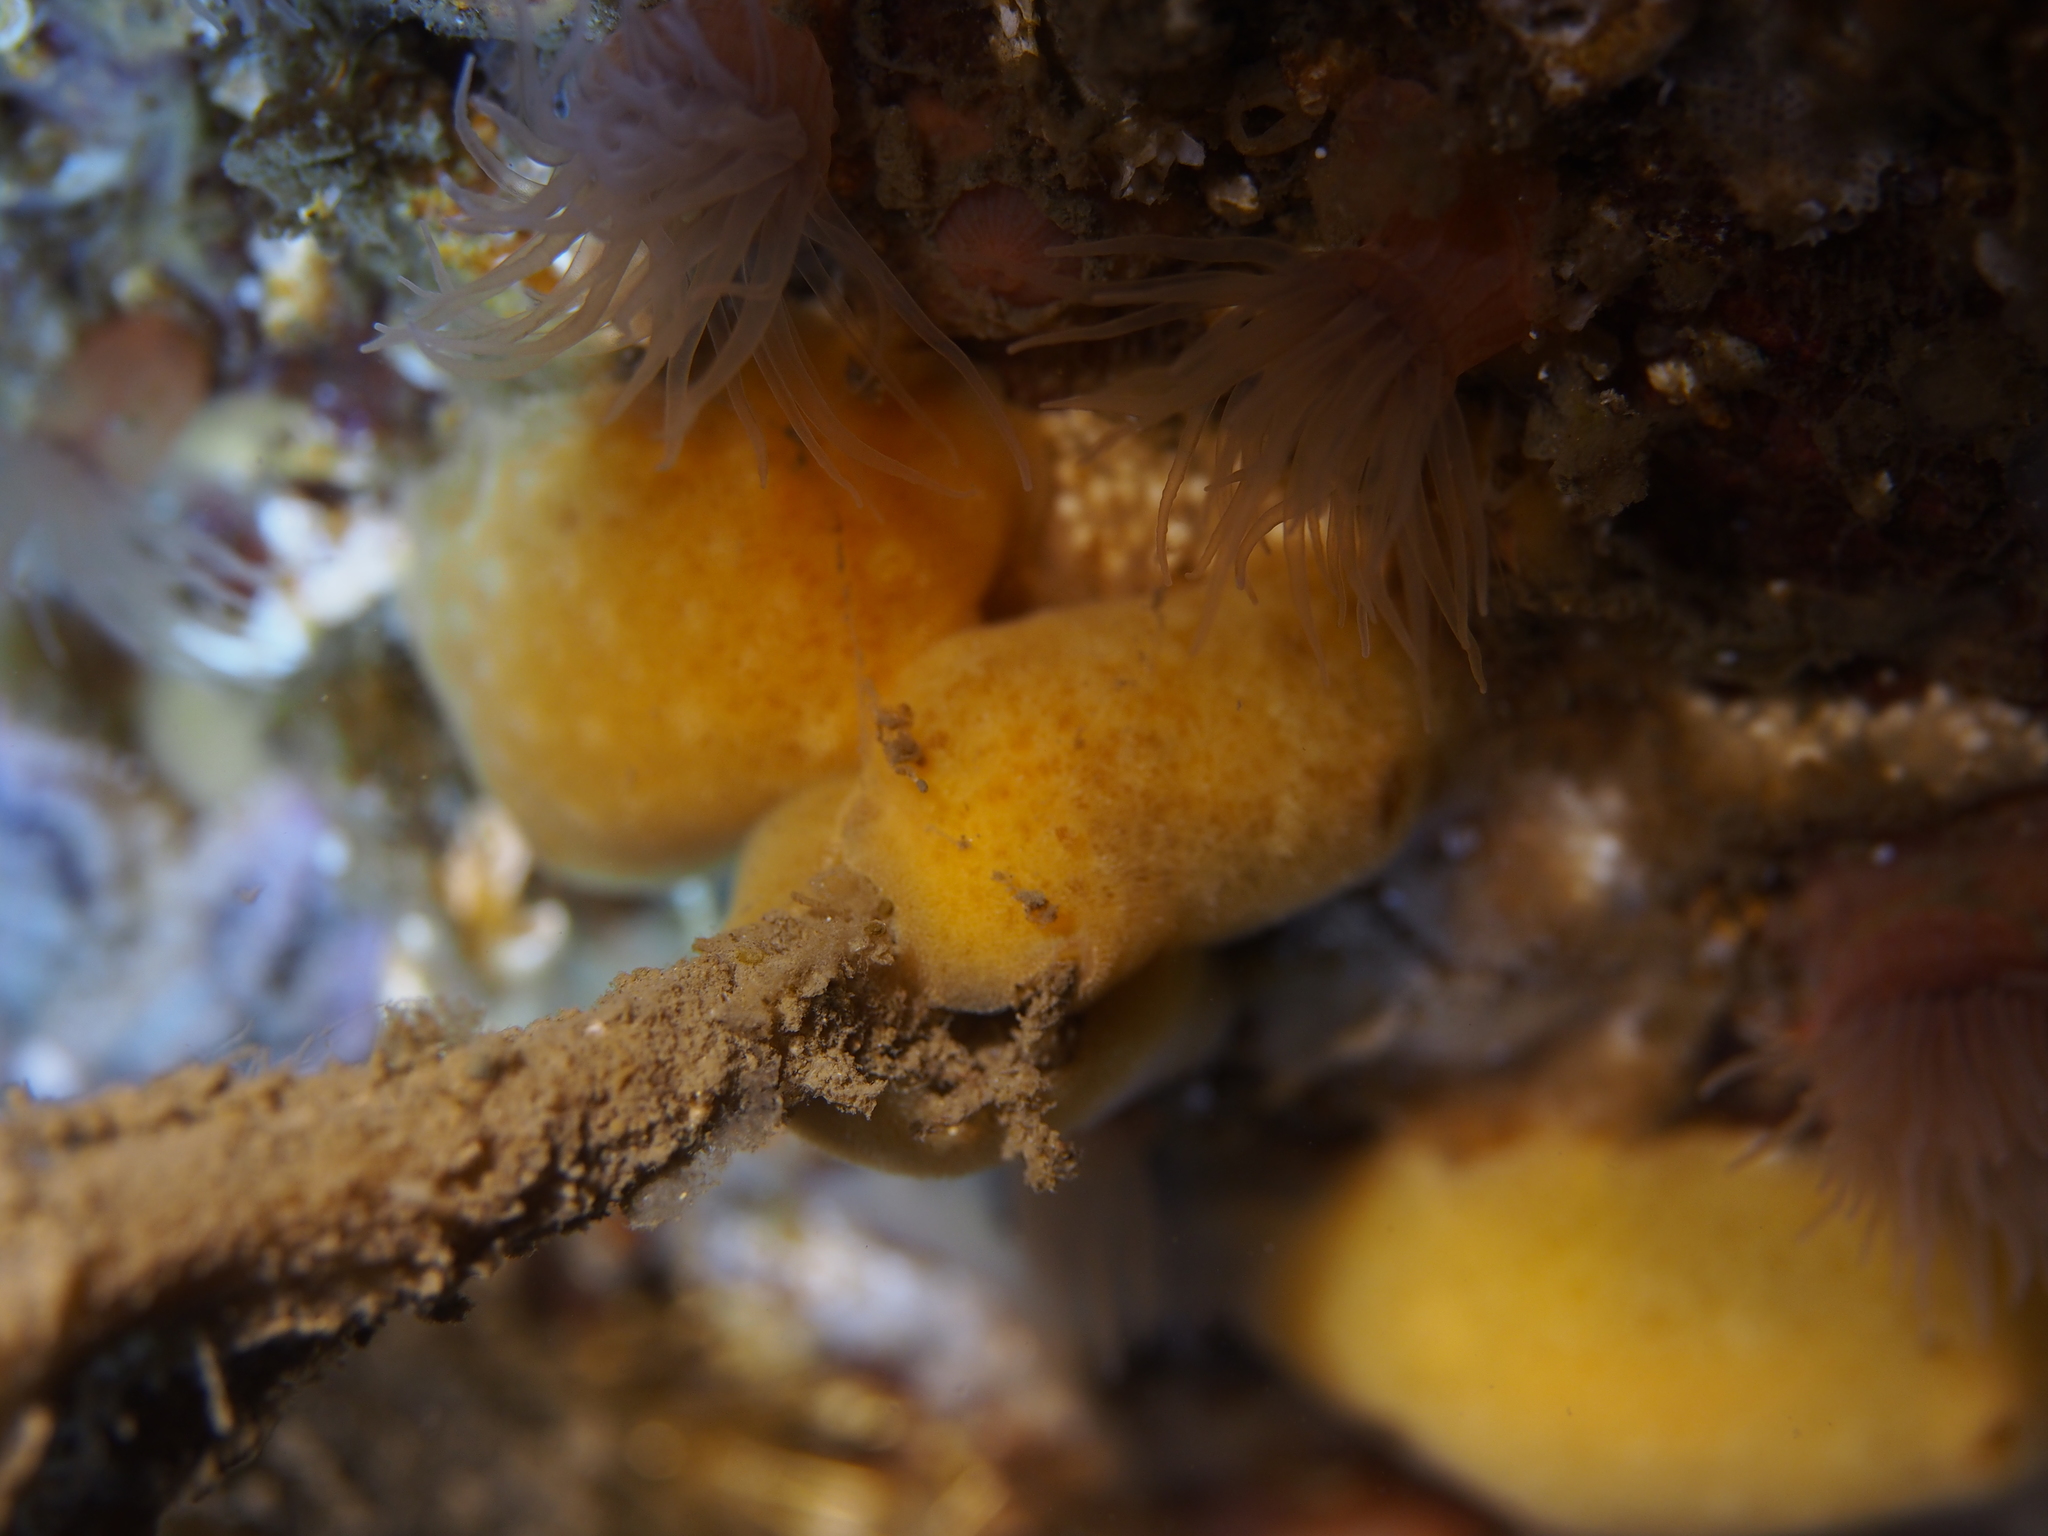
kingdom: Animalia
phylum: Mollusca
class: Gastropoda
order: Nudibranchia
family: Discodorididae
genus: Jorunna
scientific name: Jorunna tomentosa
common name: Grey sea slug
